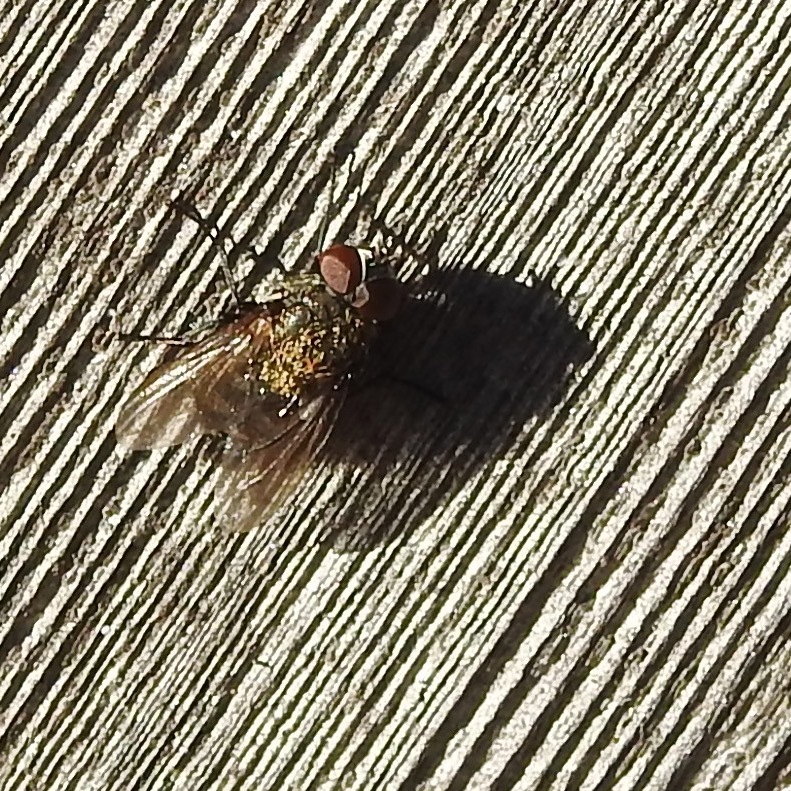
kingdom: Animalia
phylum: Arthropoda
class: Insecta
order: Diptera
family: Polleniidae
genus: Pollenia
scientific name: Pollenia
